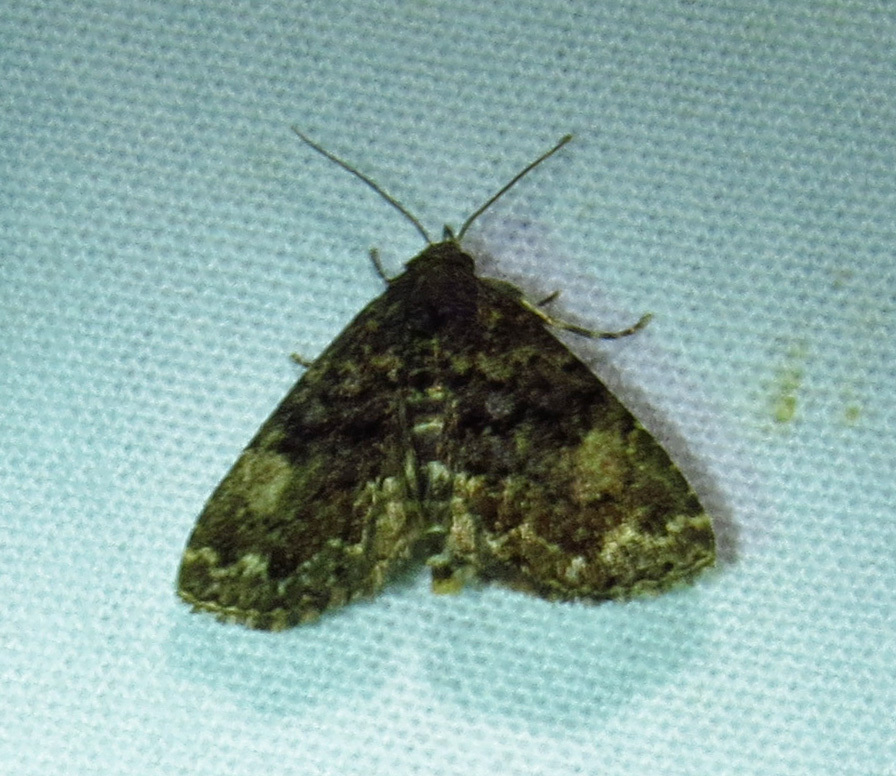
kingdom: Animalia
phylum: Arthropoda
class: Insecta
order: Lepidoptera
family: Erebidae
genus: Metalectra
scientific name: Metalectra richardsi
